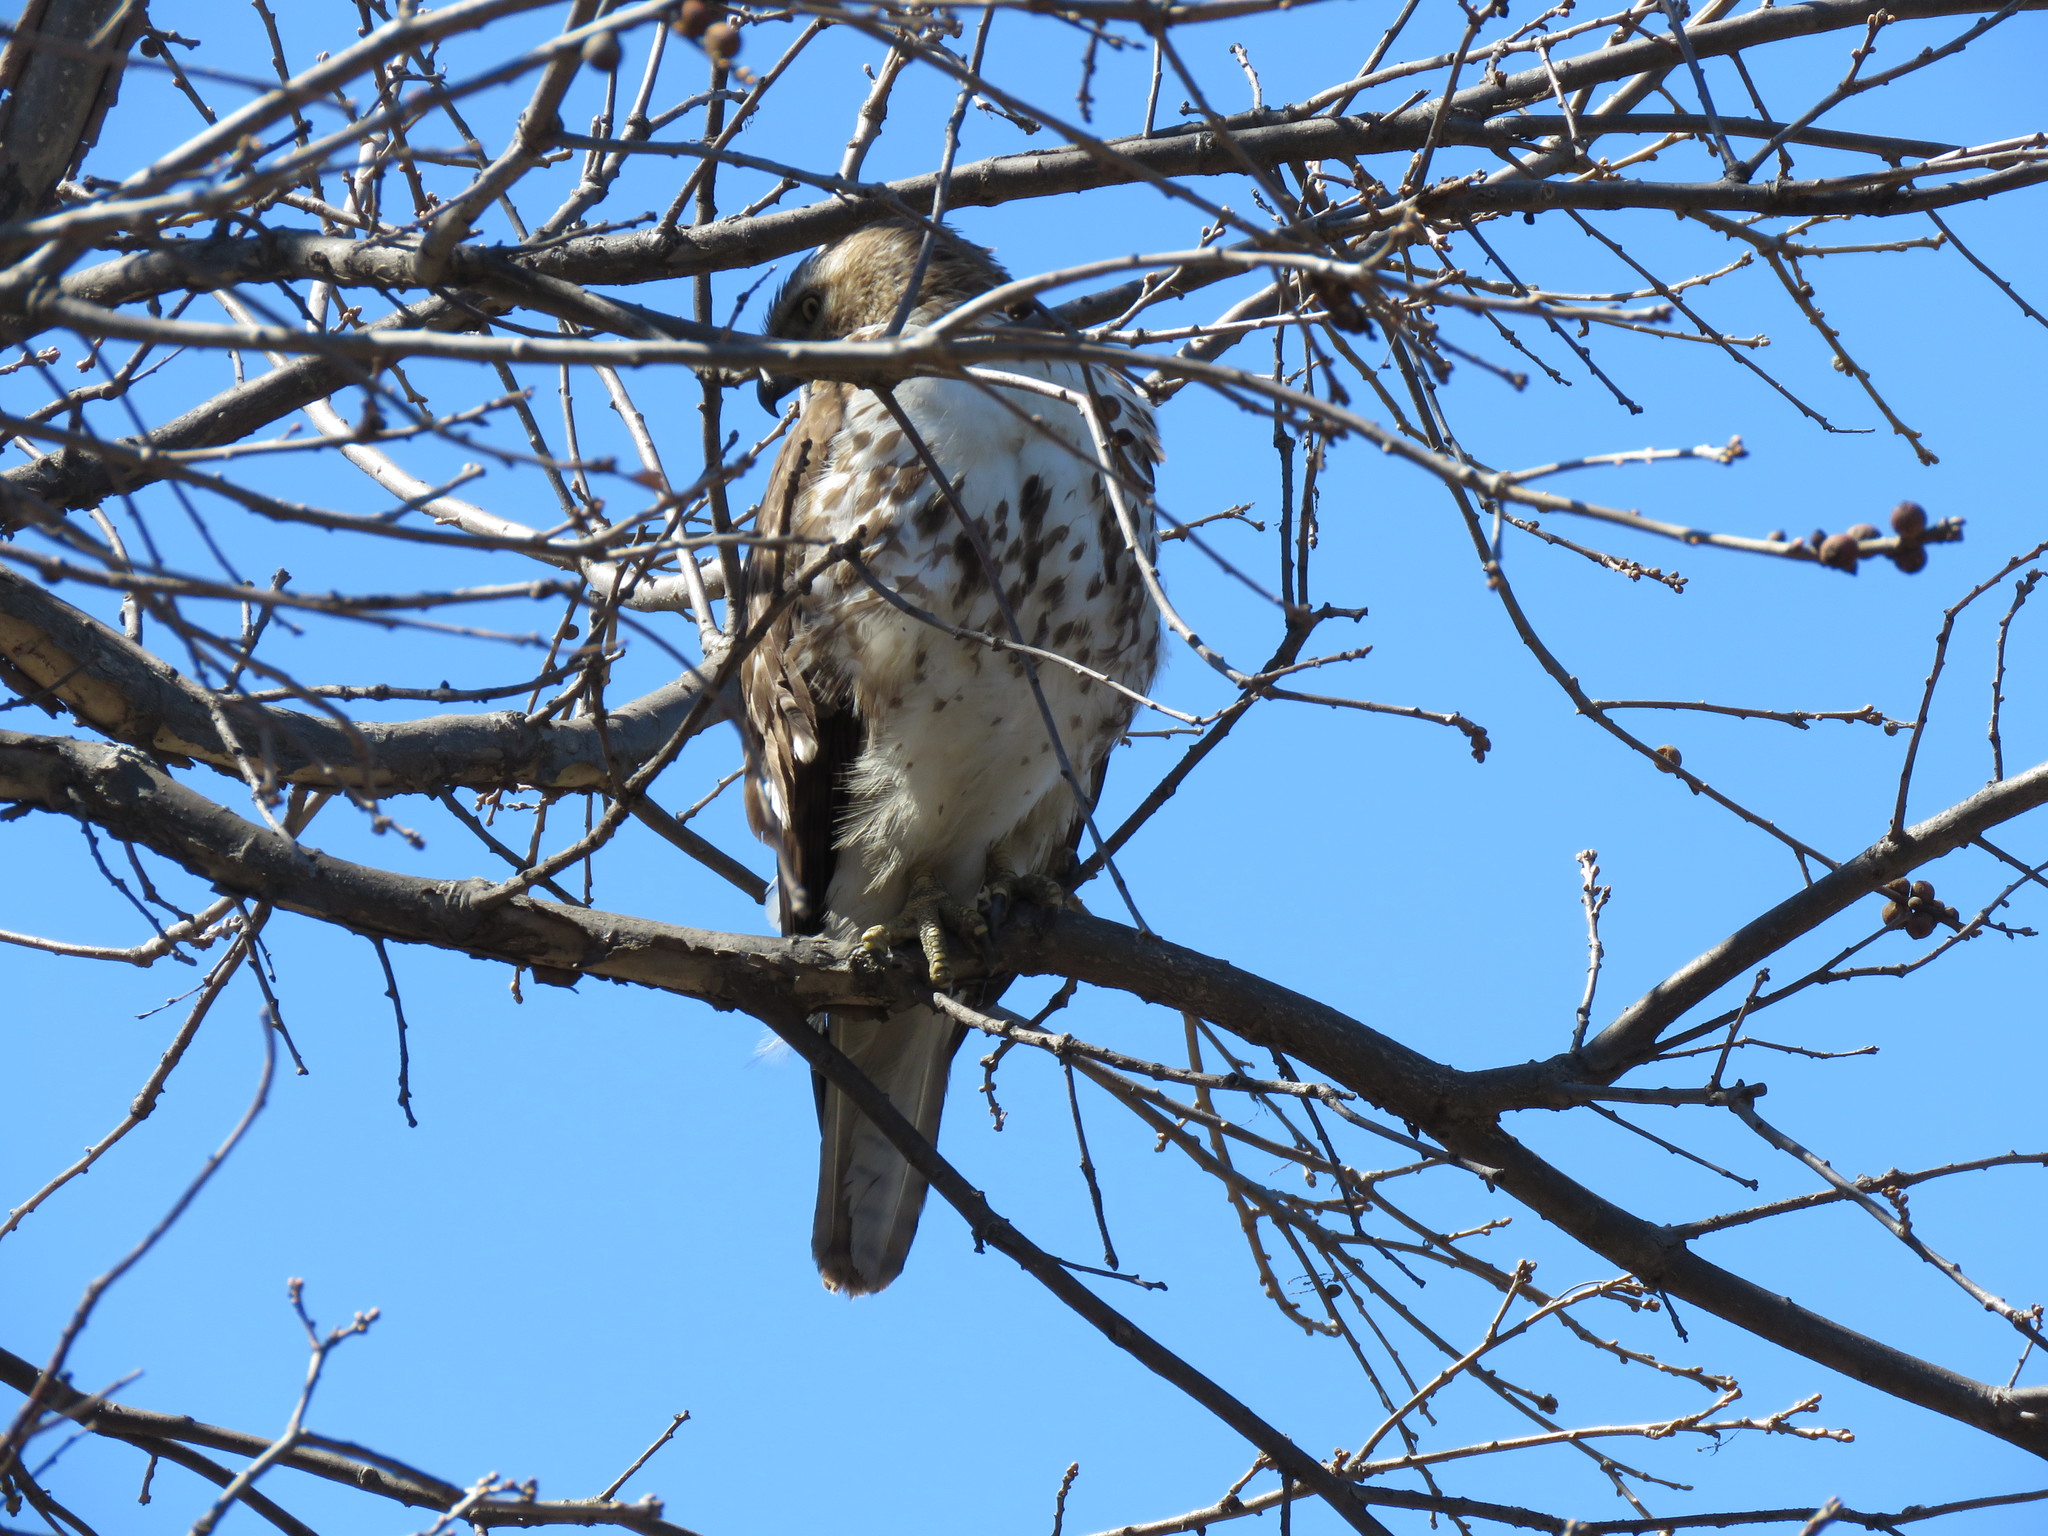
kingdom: Animalia
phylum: Chordata
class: Aves
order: Accipitriformes
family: Accipitridae
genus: Buteo
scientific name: Buteo jamaicensis
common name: Red-tailed hawk
